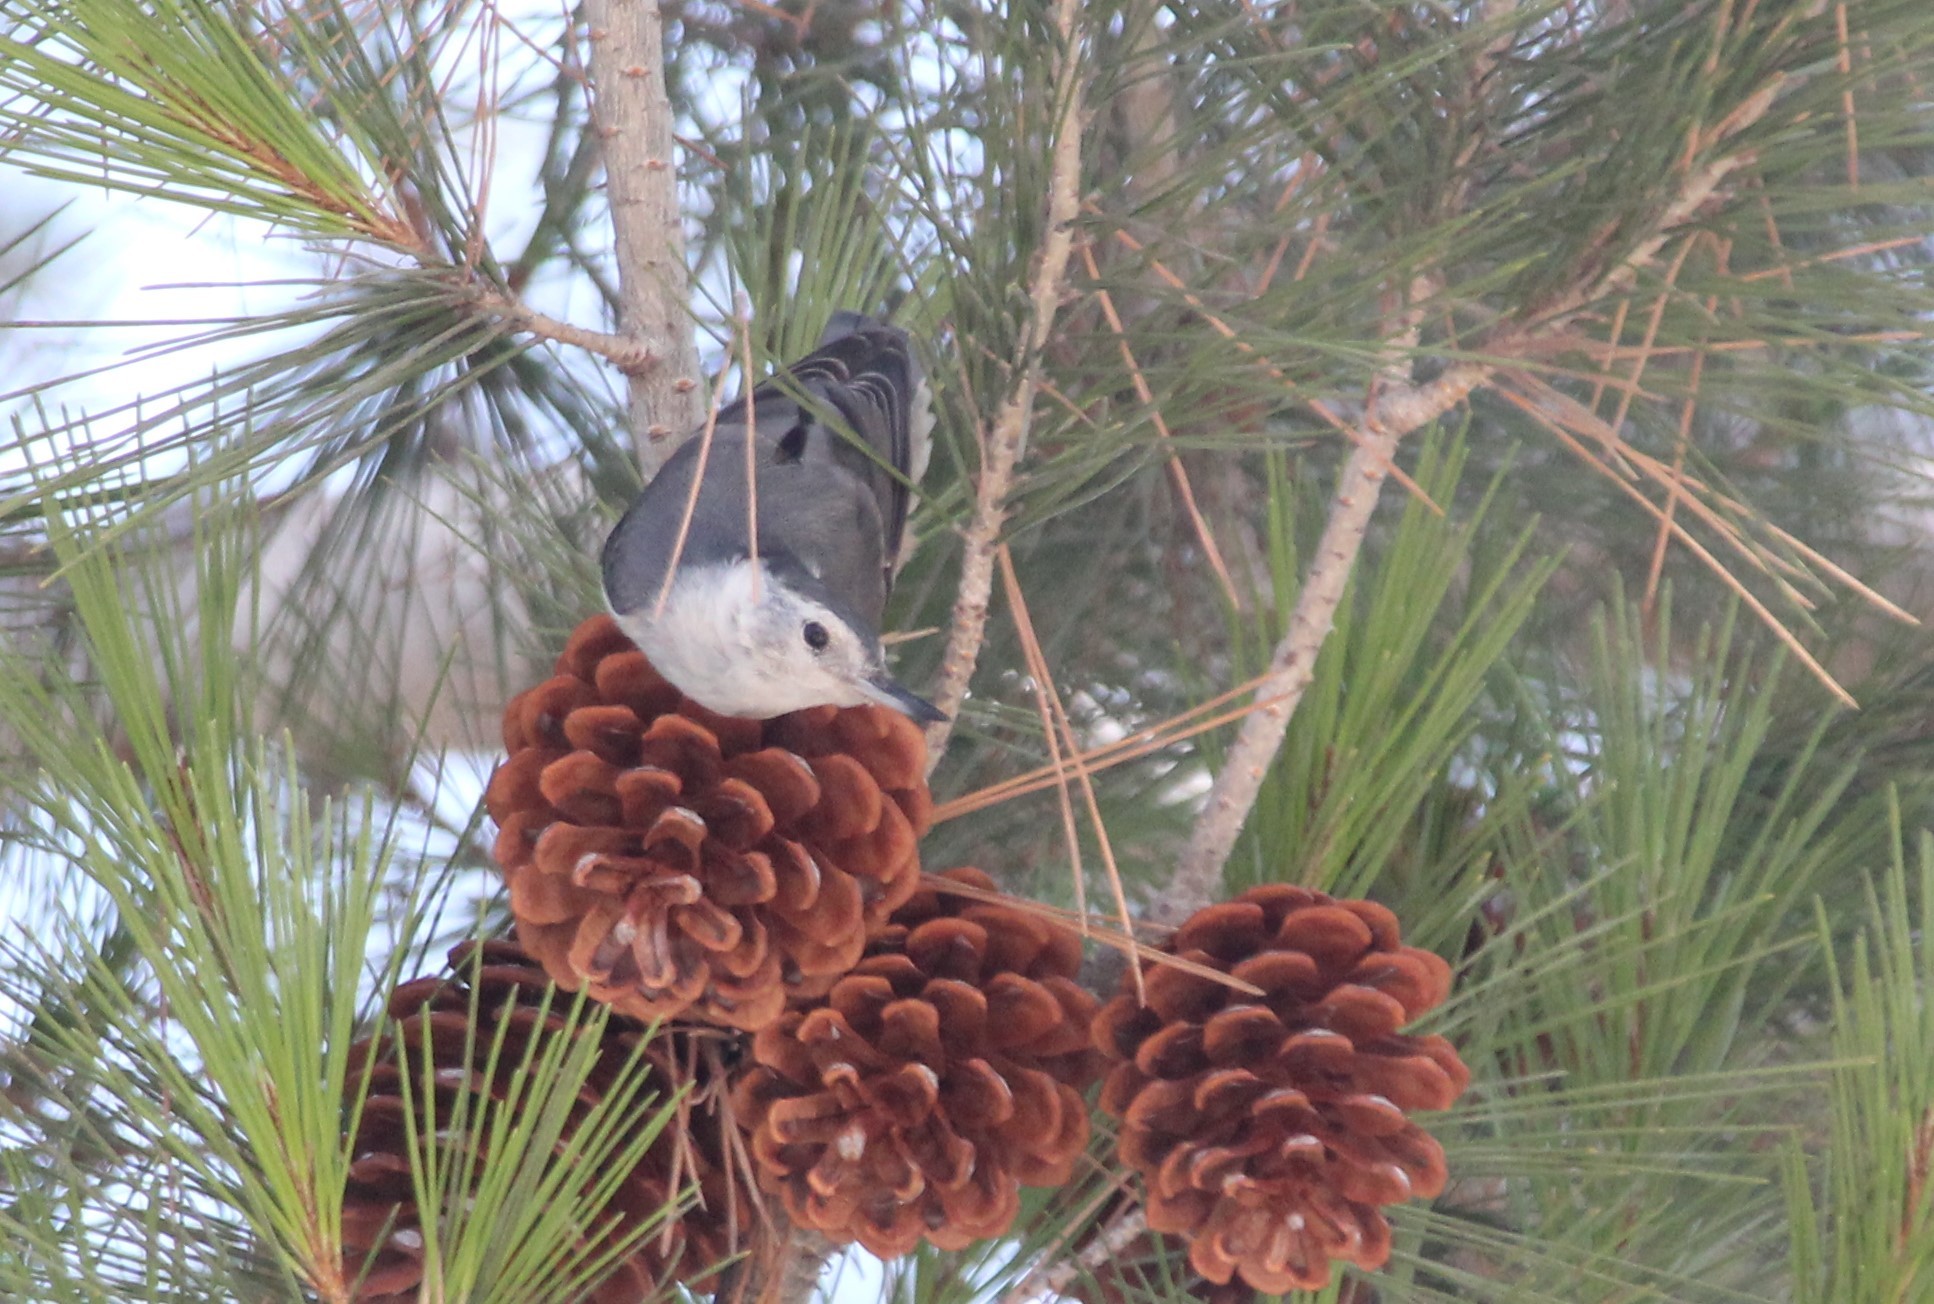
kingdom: Animalia
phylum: Chordata
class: Aves
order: Passeriformes
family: Sittidae
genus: Sitta
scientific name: Sitta carolinensis
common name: White-breasted nuthatch
